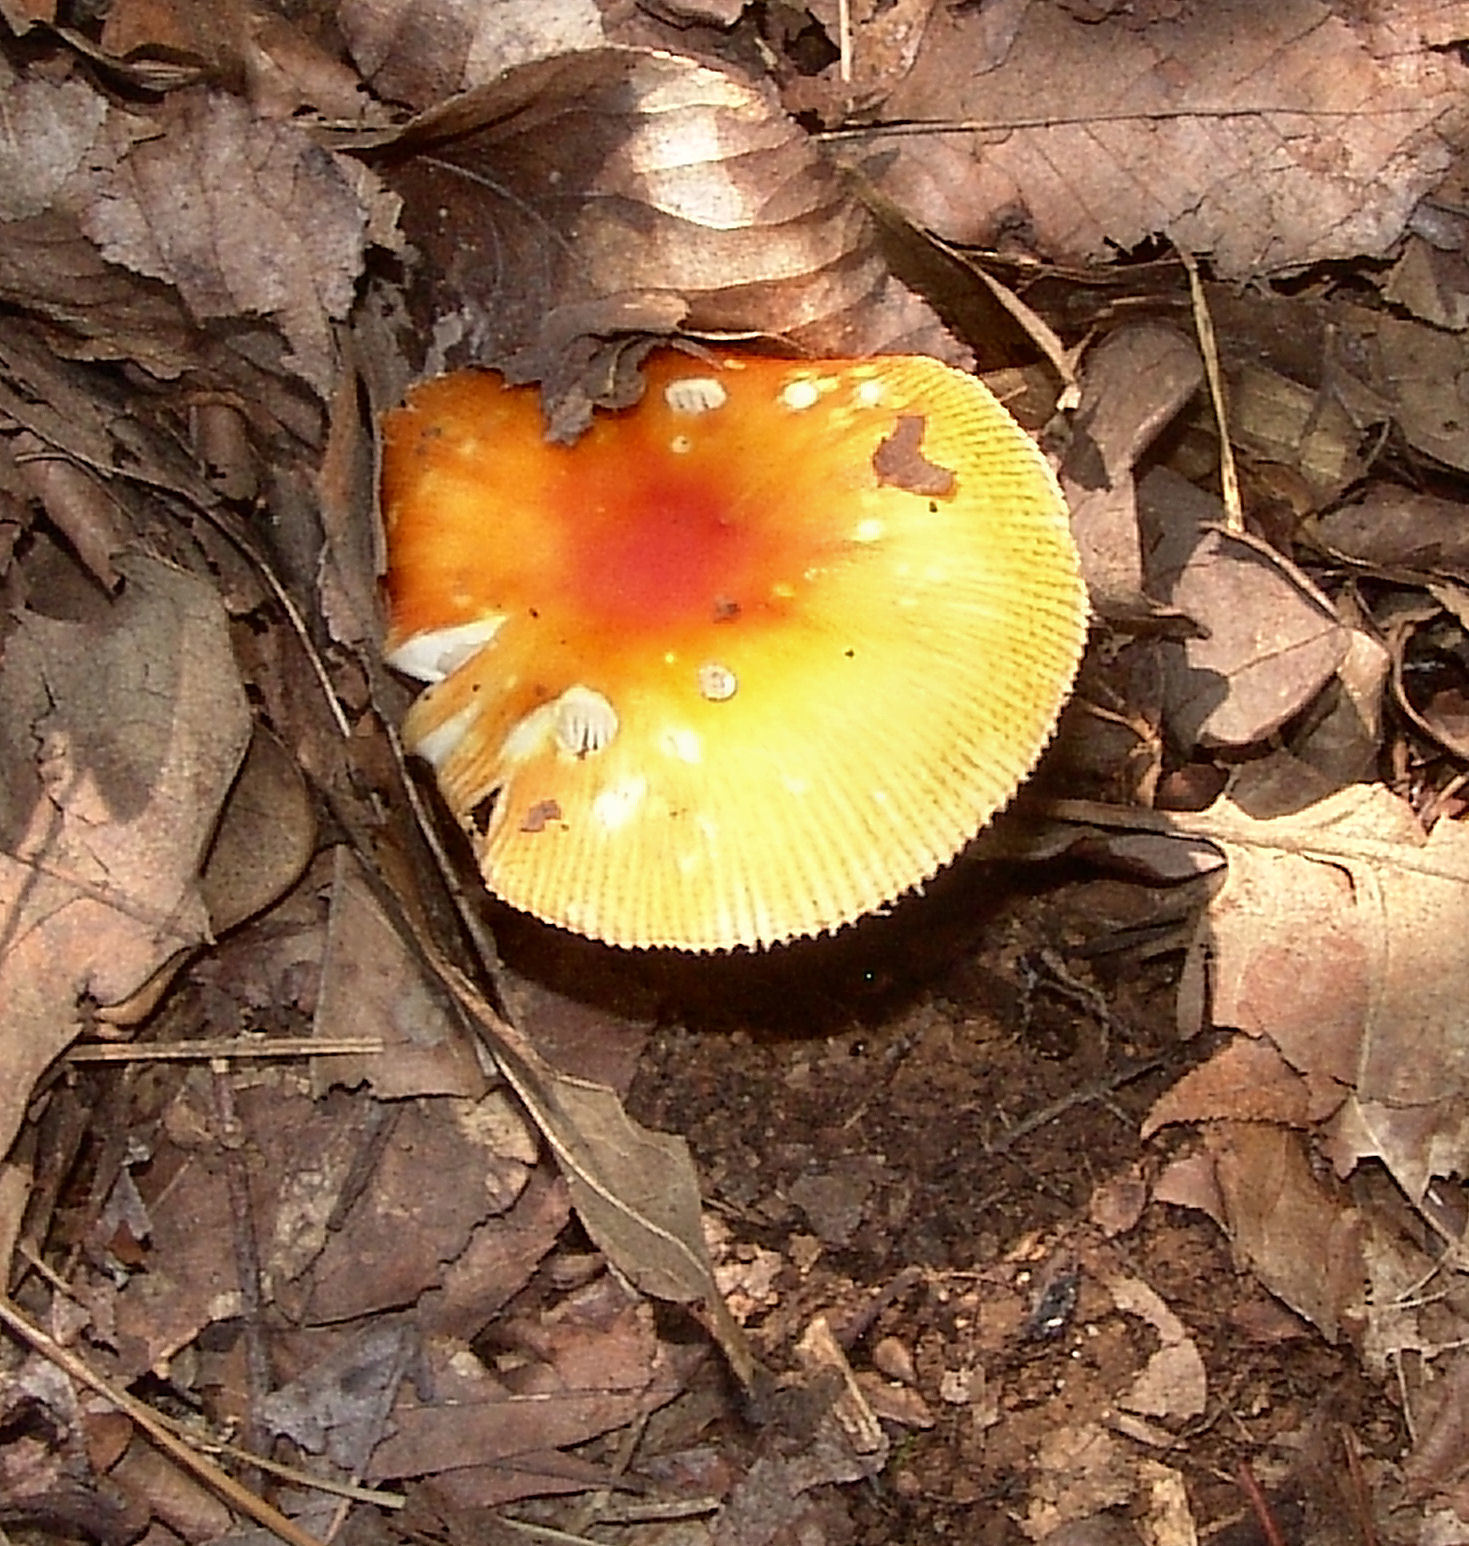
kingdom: Fungi
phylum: Basidiomycota
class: Agaricomycetes
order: Agaricales
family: Amanitaceae
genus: Amanita
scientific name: Amanita parcivolvata
